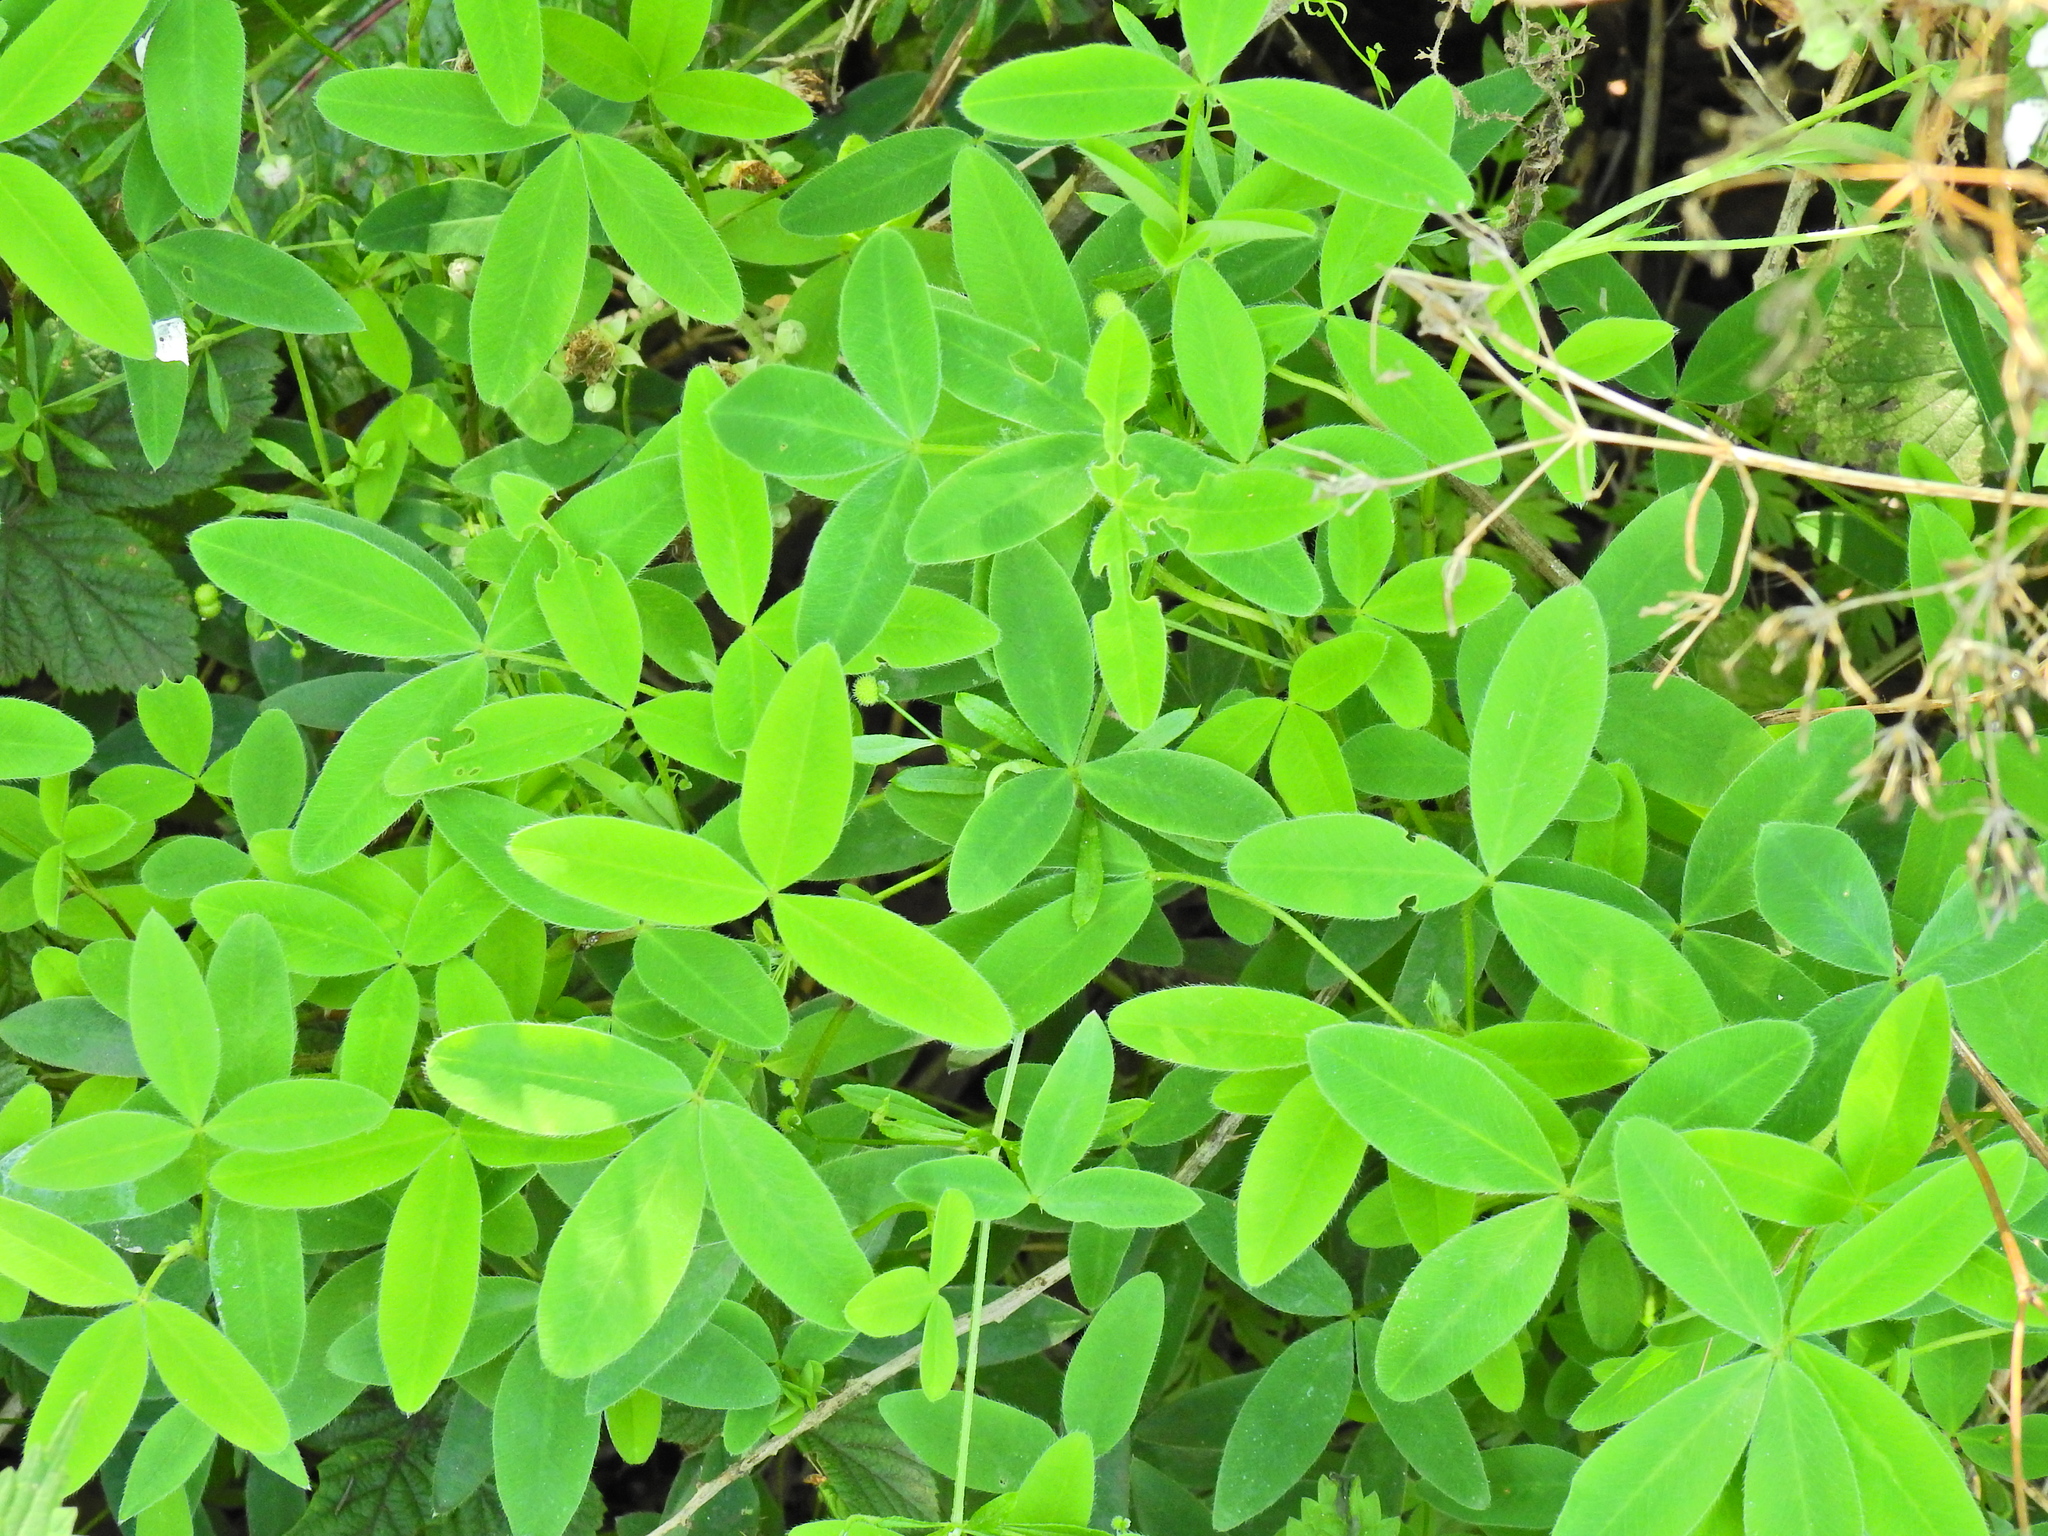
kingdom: Plantae
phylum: Tracheophyta
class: Magnoliopsida
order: Fabales
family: Fabaceae
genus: Trifolium
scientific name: Trifolium medium
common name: Zigzag clover
